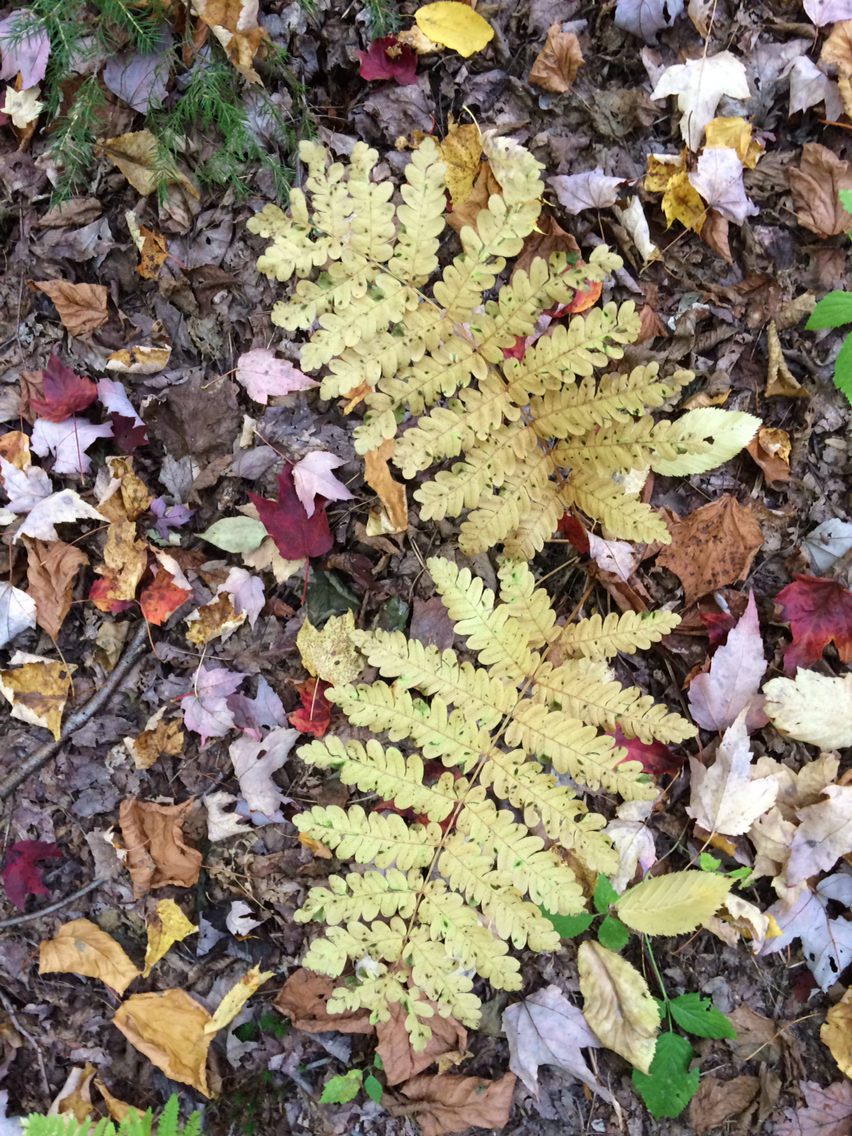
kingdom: Plantae
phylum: Tracheophyta
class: Polypodiopsida
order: Osmundales
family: Osmundaceae
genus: Claytosmunda
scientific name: Claytosmunda claytoniana
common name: Clayton's fern
